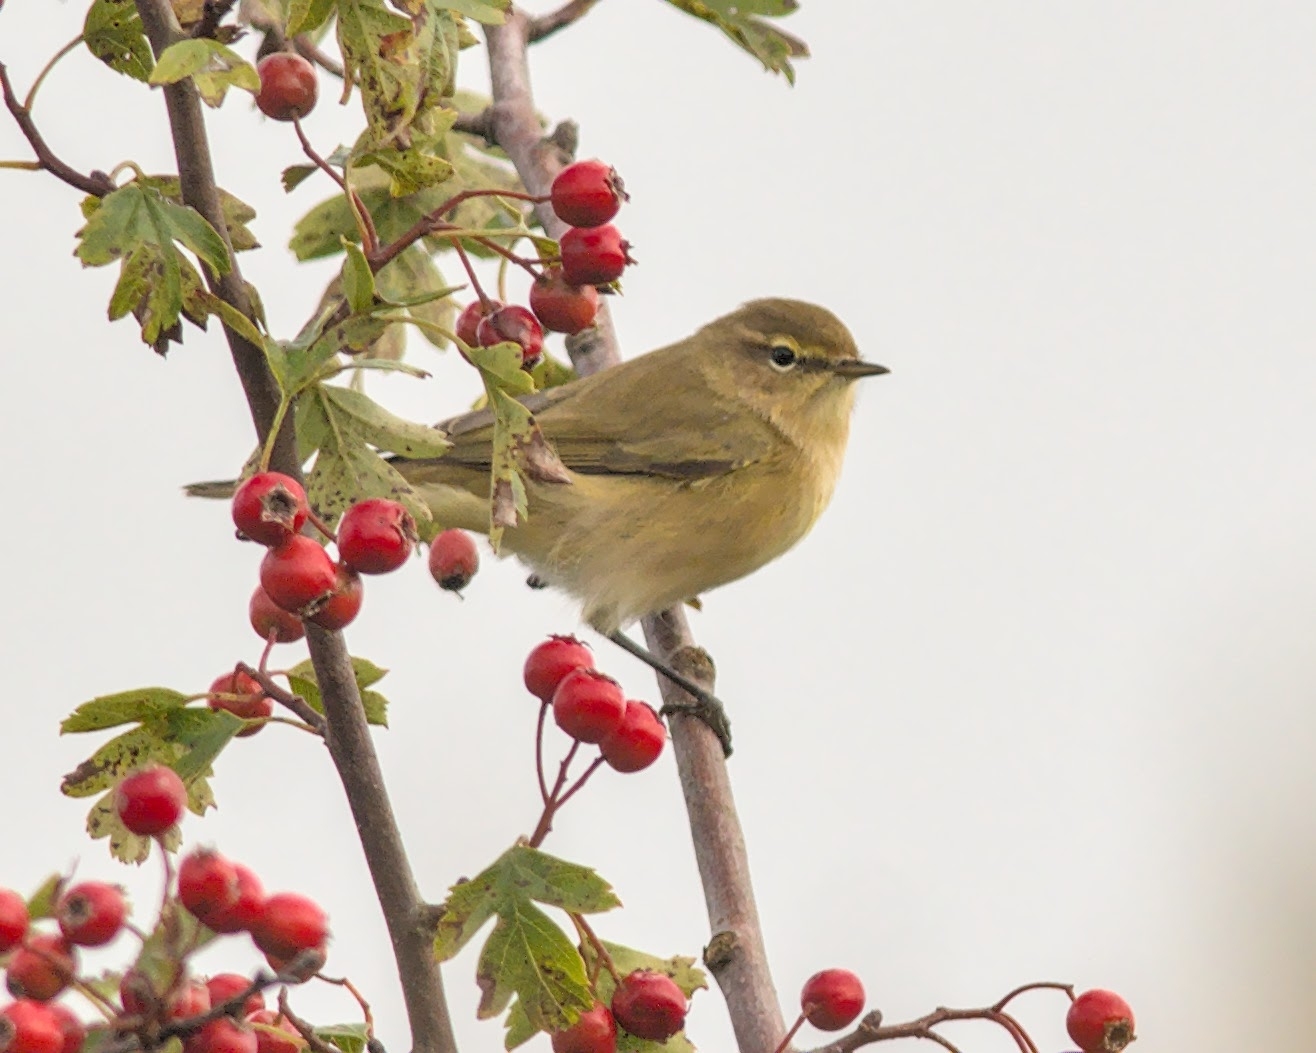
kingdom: Animalia
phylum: Chordata
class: Aves
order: Passeriformes
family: Phylloscopidae
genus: Phylloscopus
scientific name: Phylloscopus collybita
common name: Common chiffchaff
